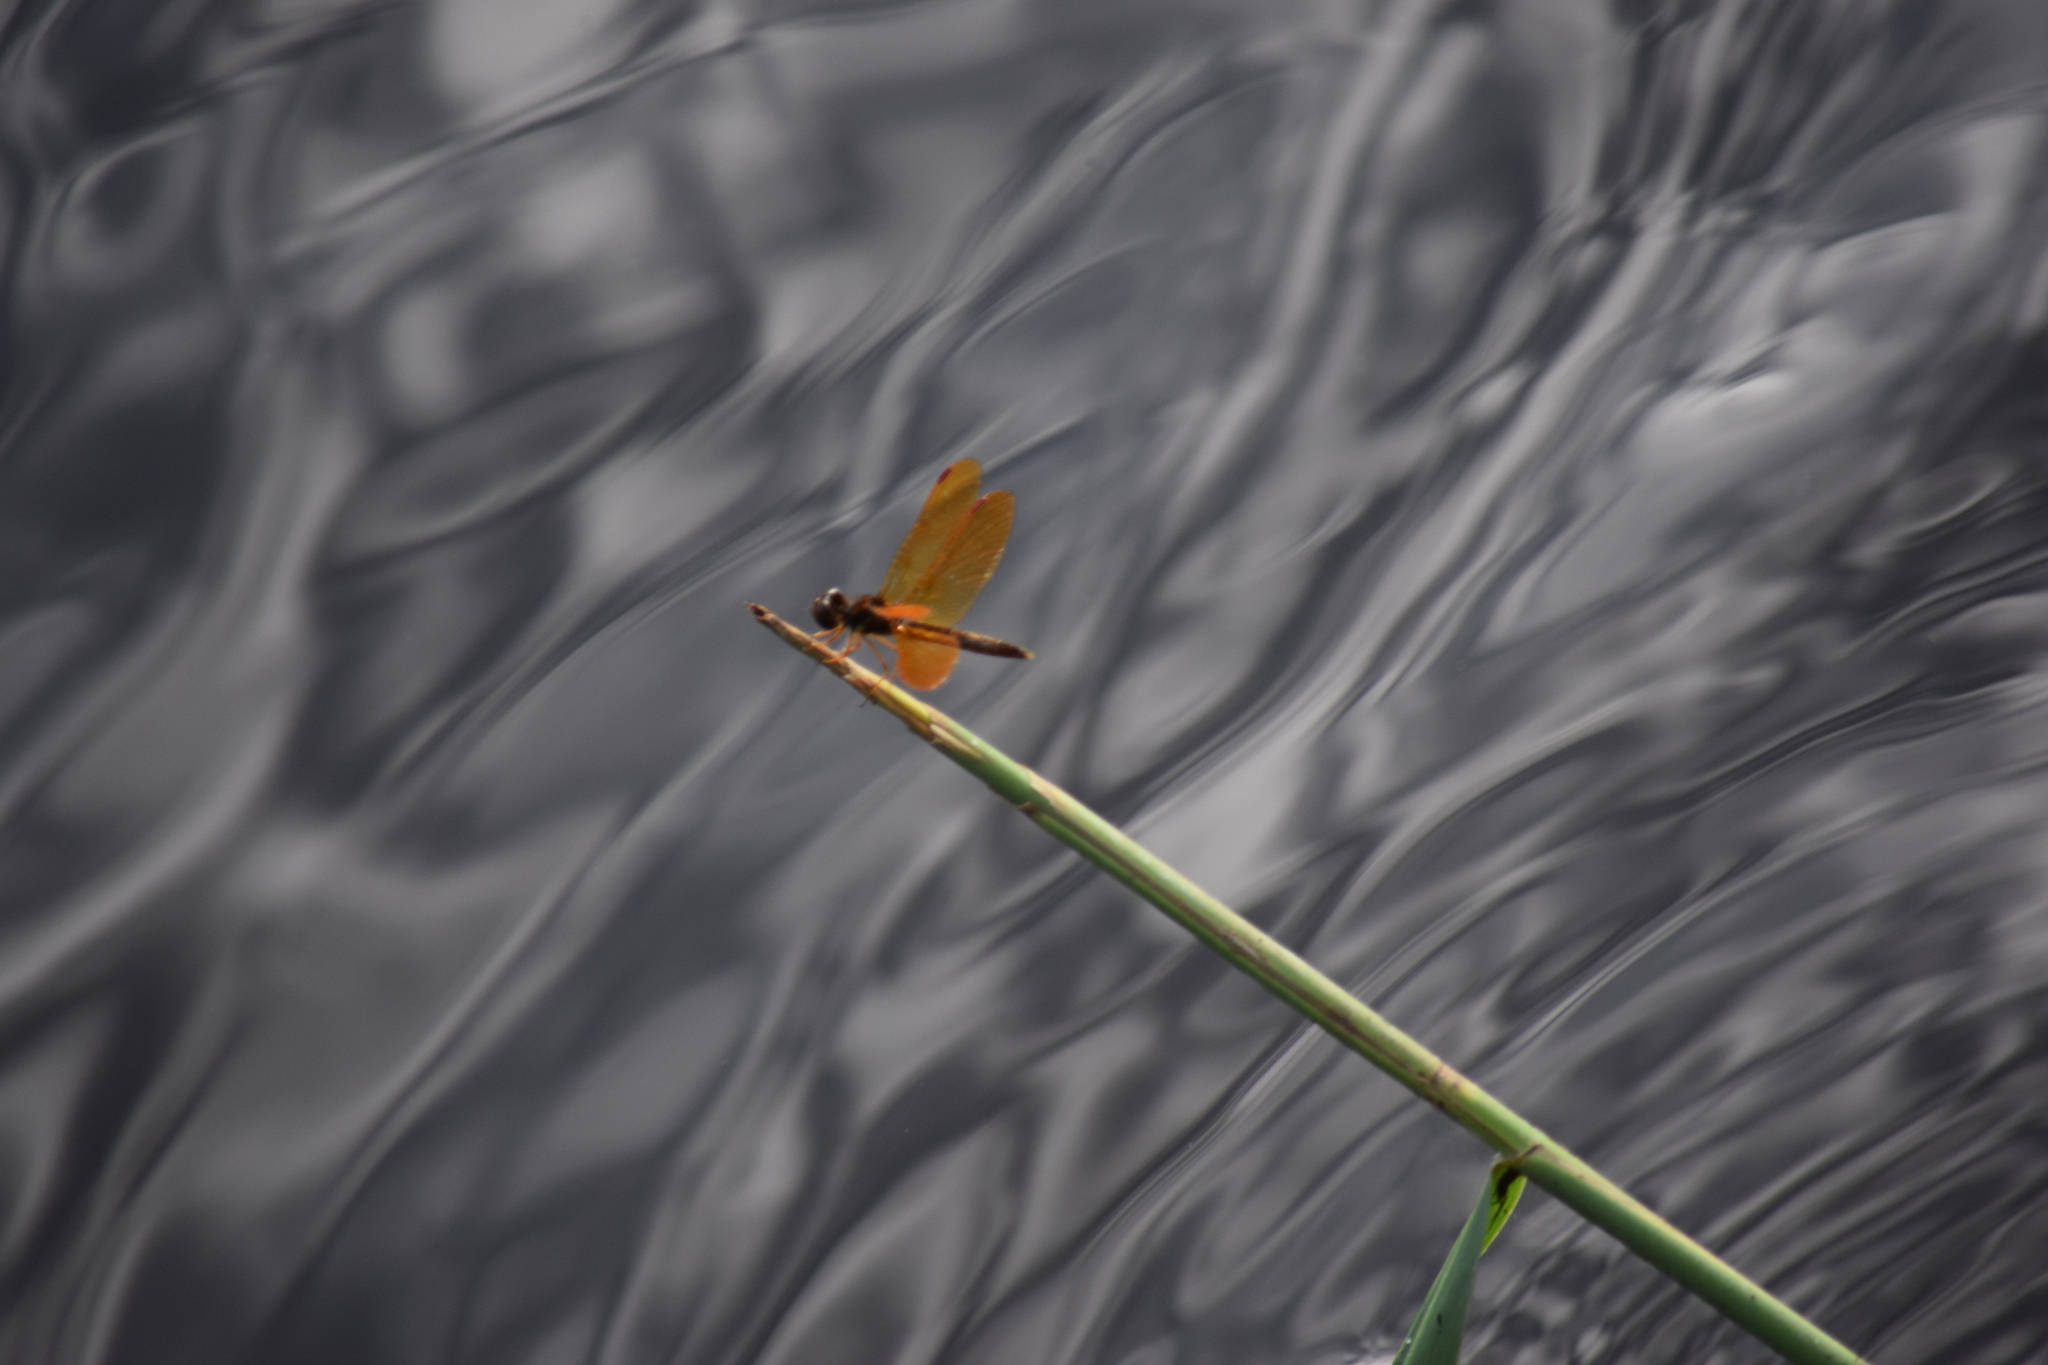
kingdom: Animalia
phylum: Arthropoda
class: Insecta
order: Odonata
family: Libellulidae
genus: Perithemis
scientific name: Perithemis tenera
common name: Eastern amberwing
